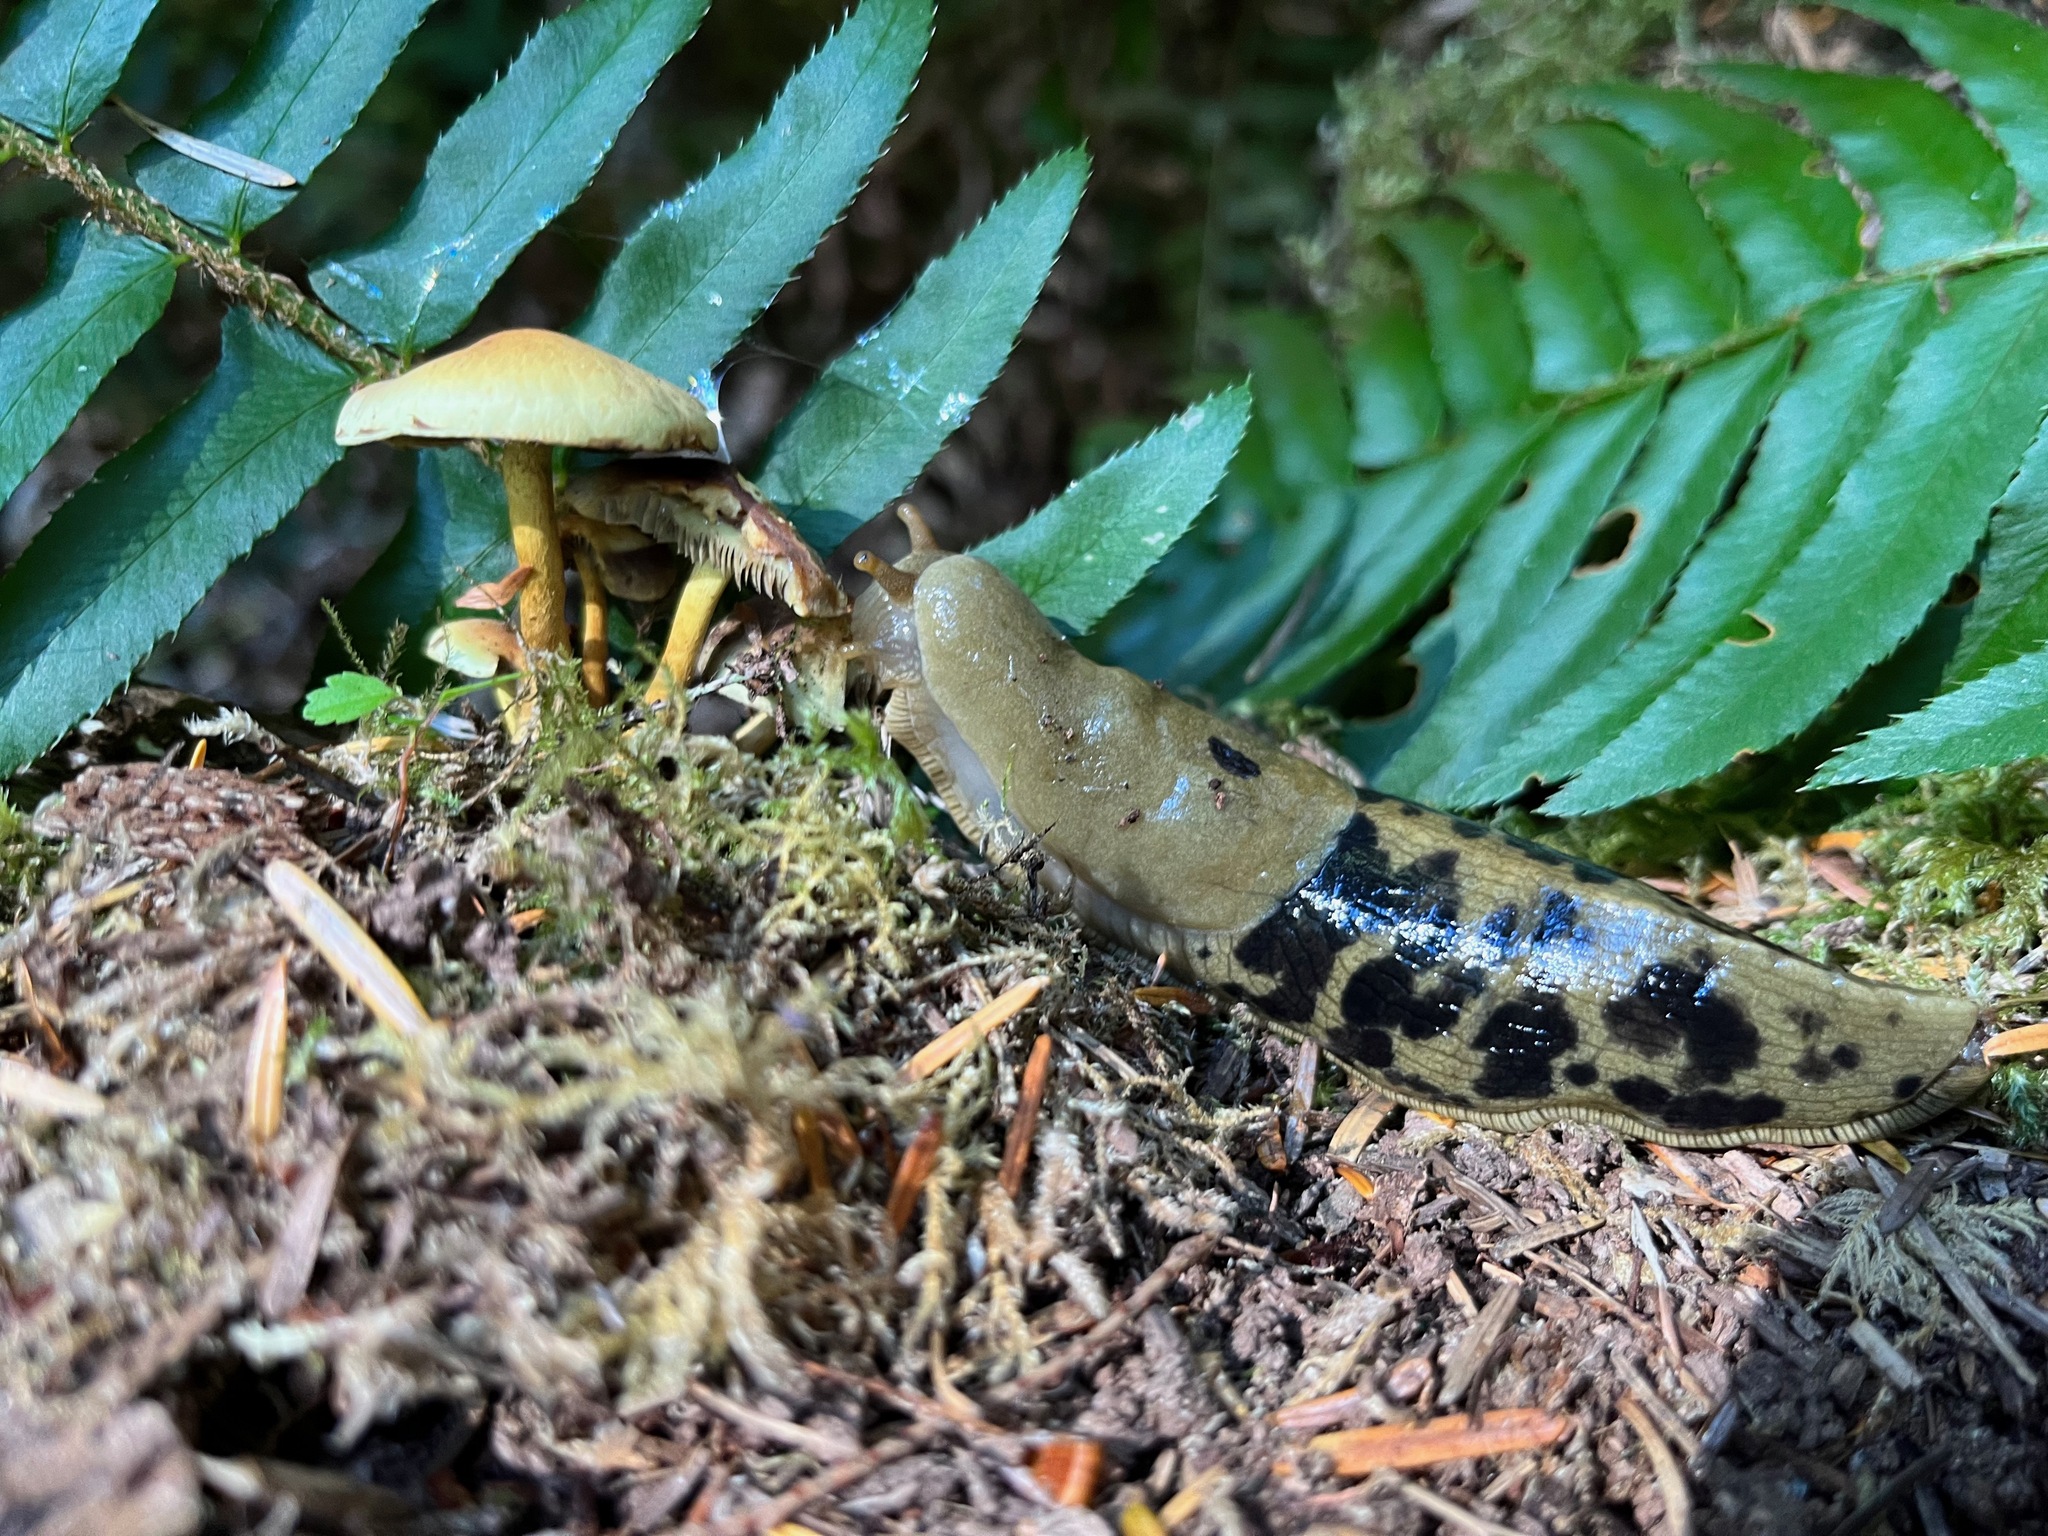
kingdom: Animalia
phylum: Mollusca
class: Gastropoda
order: Stylommatophora
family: Ariolimacidae
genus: Ariolimax
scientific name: Ariolimax columbianus
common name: Pacific banana slug
